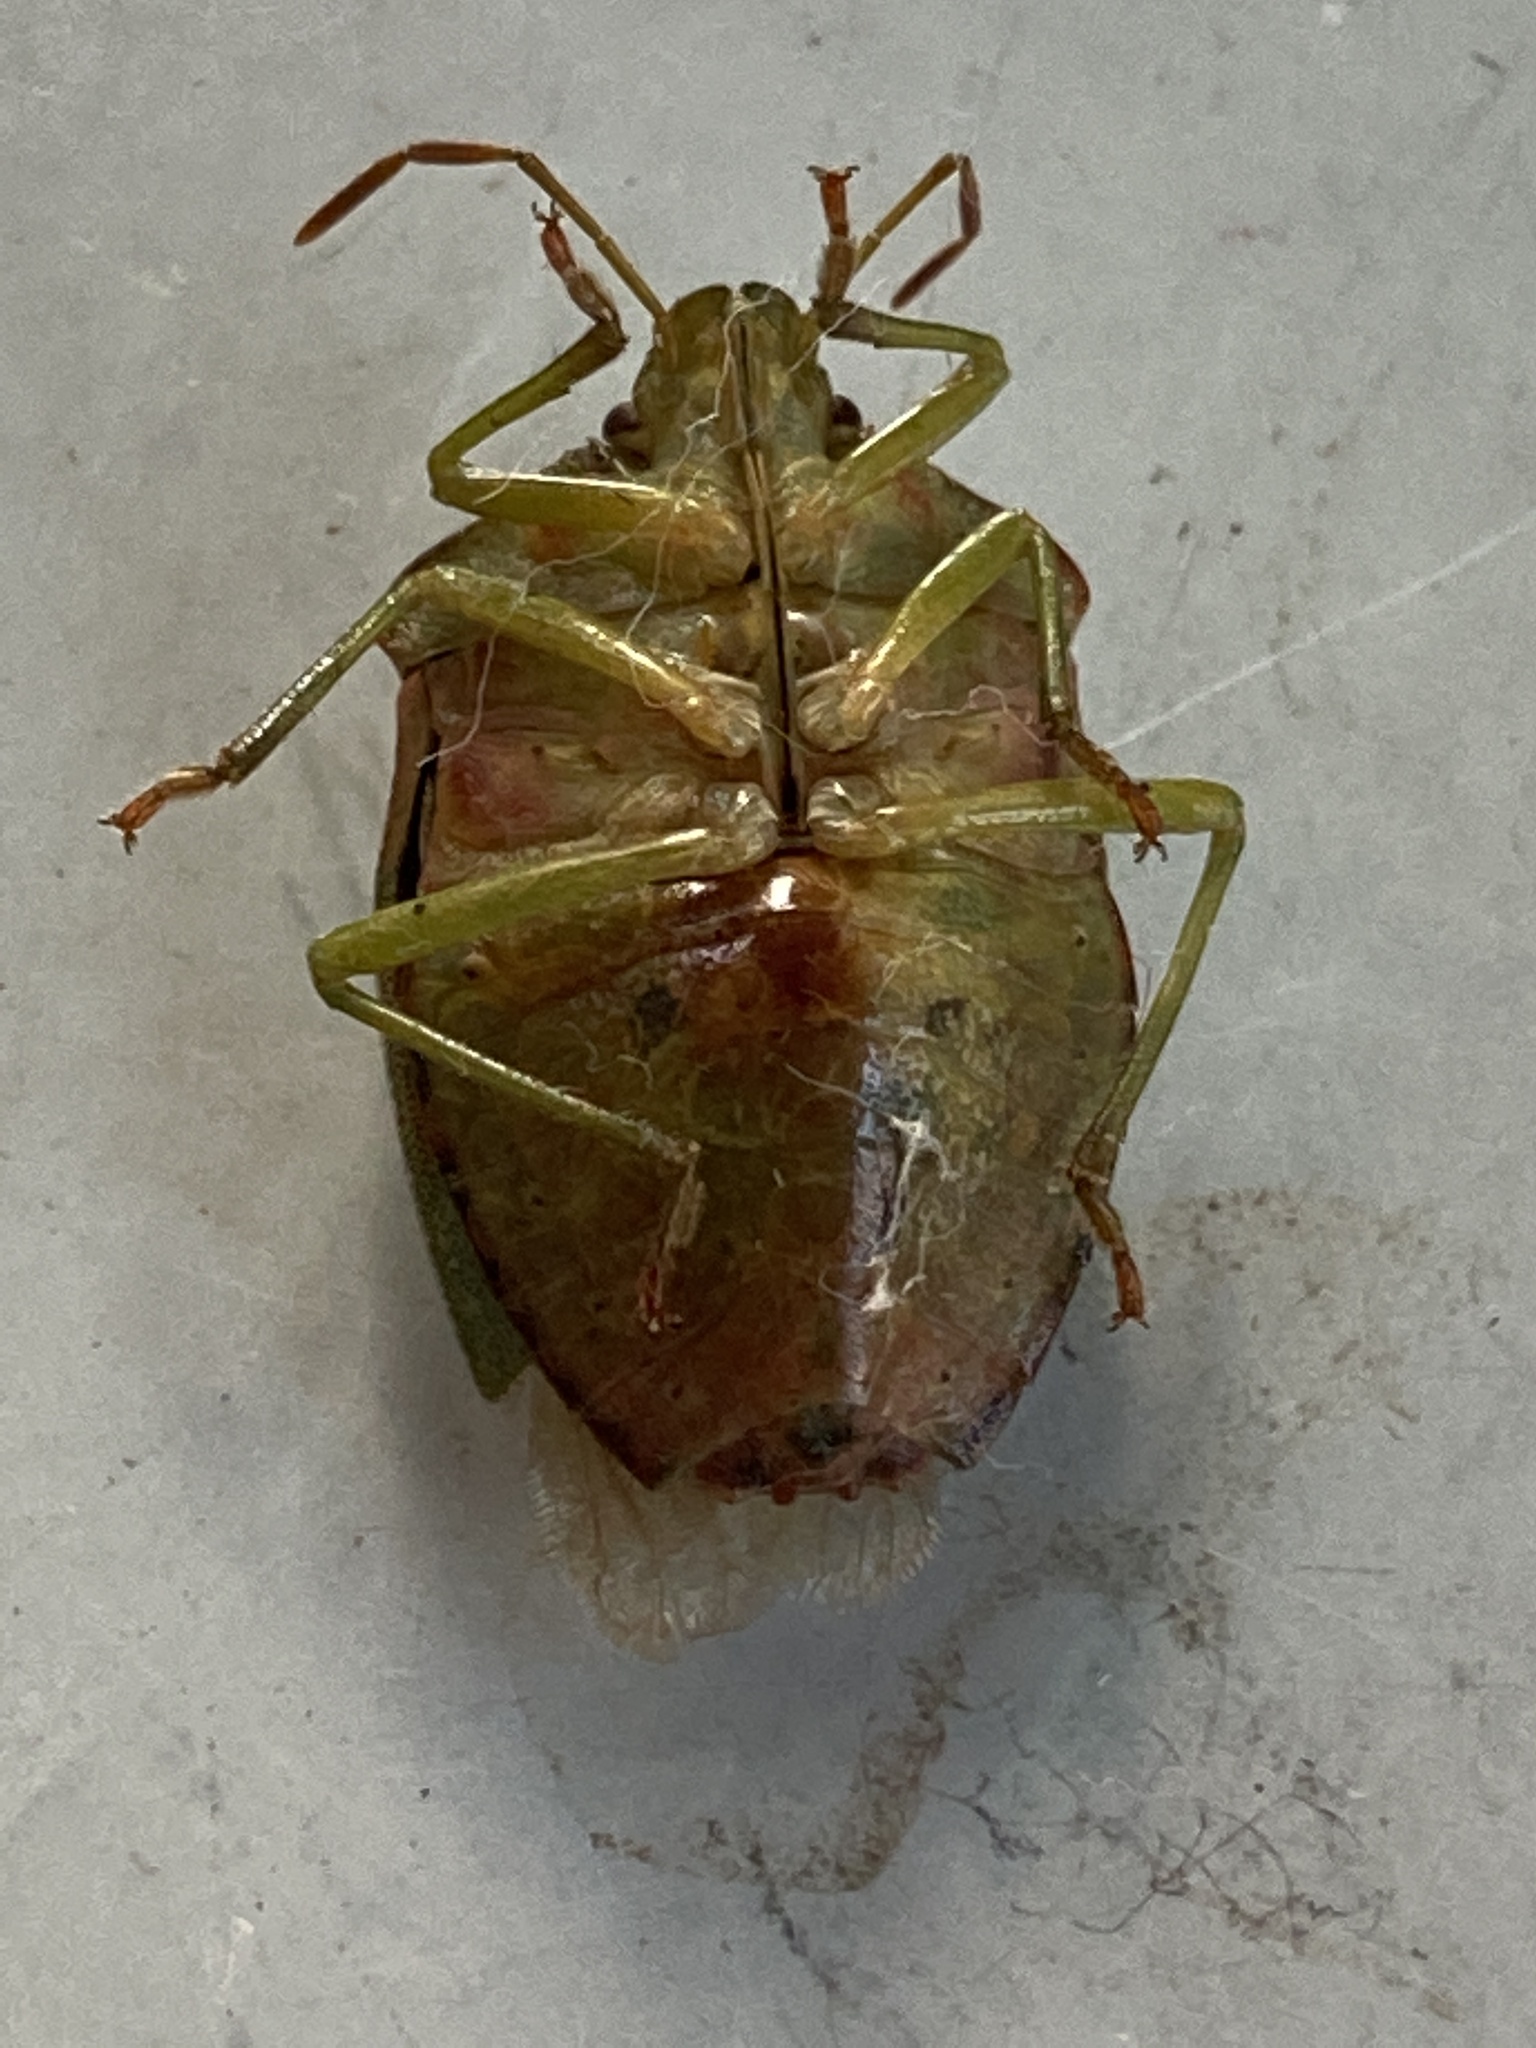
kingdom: Animalia
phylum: Arthropoda
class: Insecta
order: Hemiptera
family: Pentatomidae
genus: Palomena
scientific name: Palomena prasina
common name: Green shieldbug
